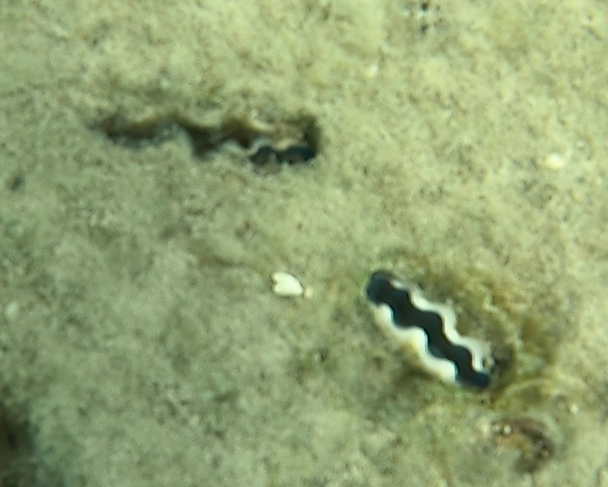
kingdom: Animalia
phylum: Mollusca
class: Bivalvia
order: Cardiida
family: Cardiidae
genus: Tridacna
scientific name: Tridacna crocea
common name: Boring clam
